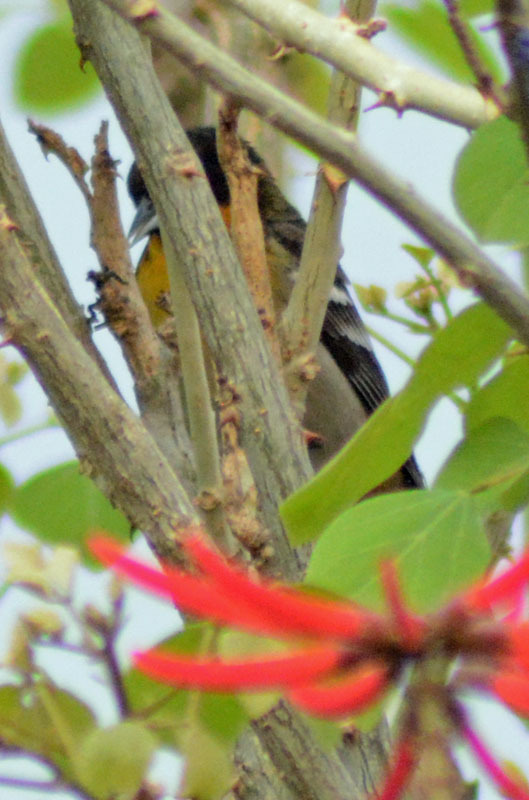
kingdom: Animalia
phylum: Chordata
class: Aves
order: Passeriformes
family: Icteridae
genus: Icterus
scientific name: Icterus abeillei
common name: Black-backed oriole
